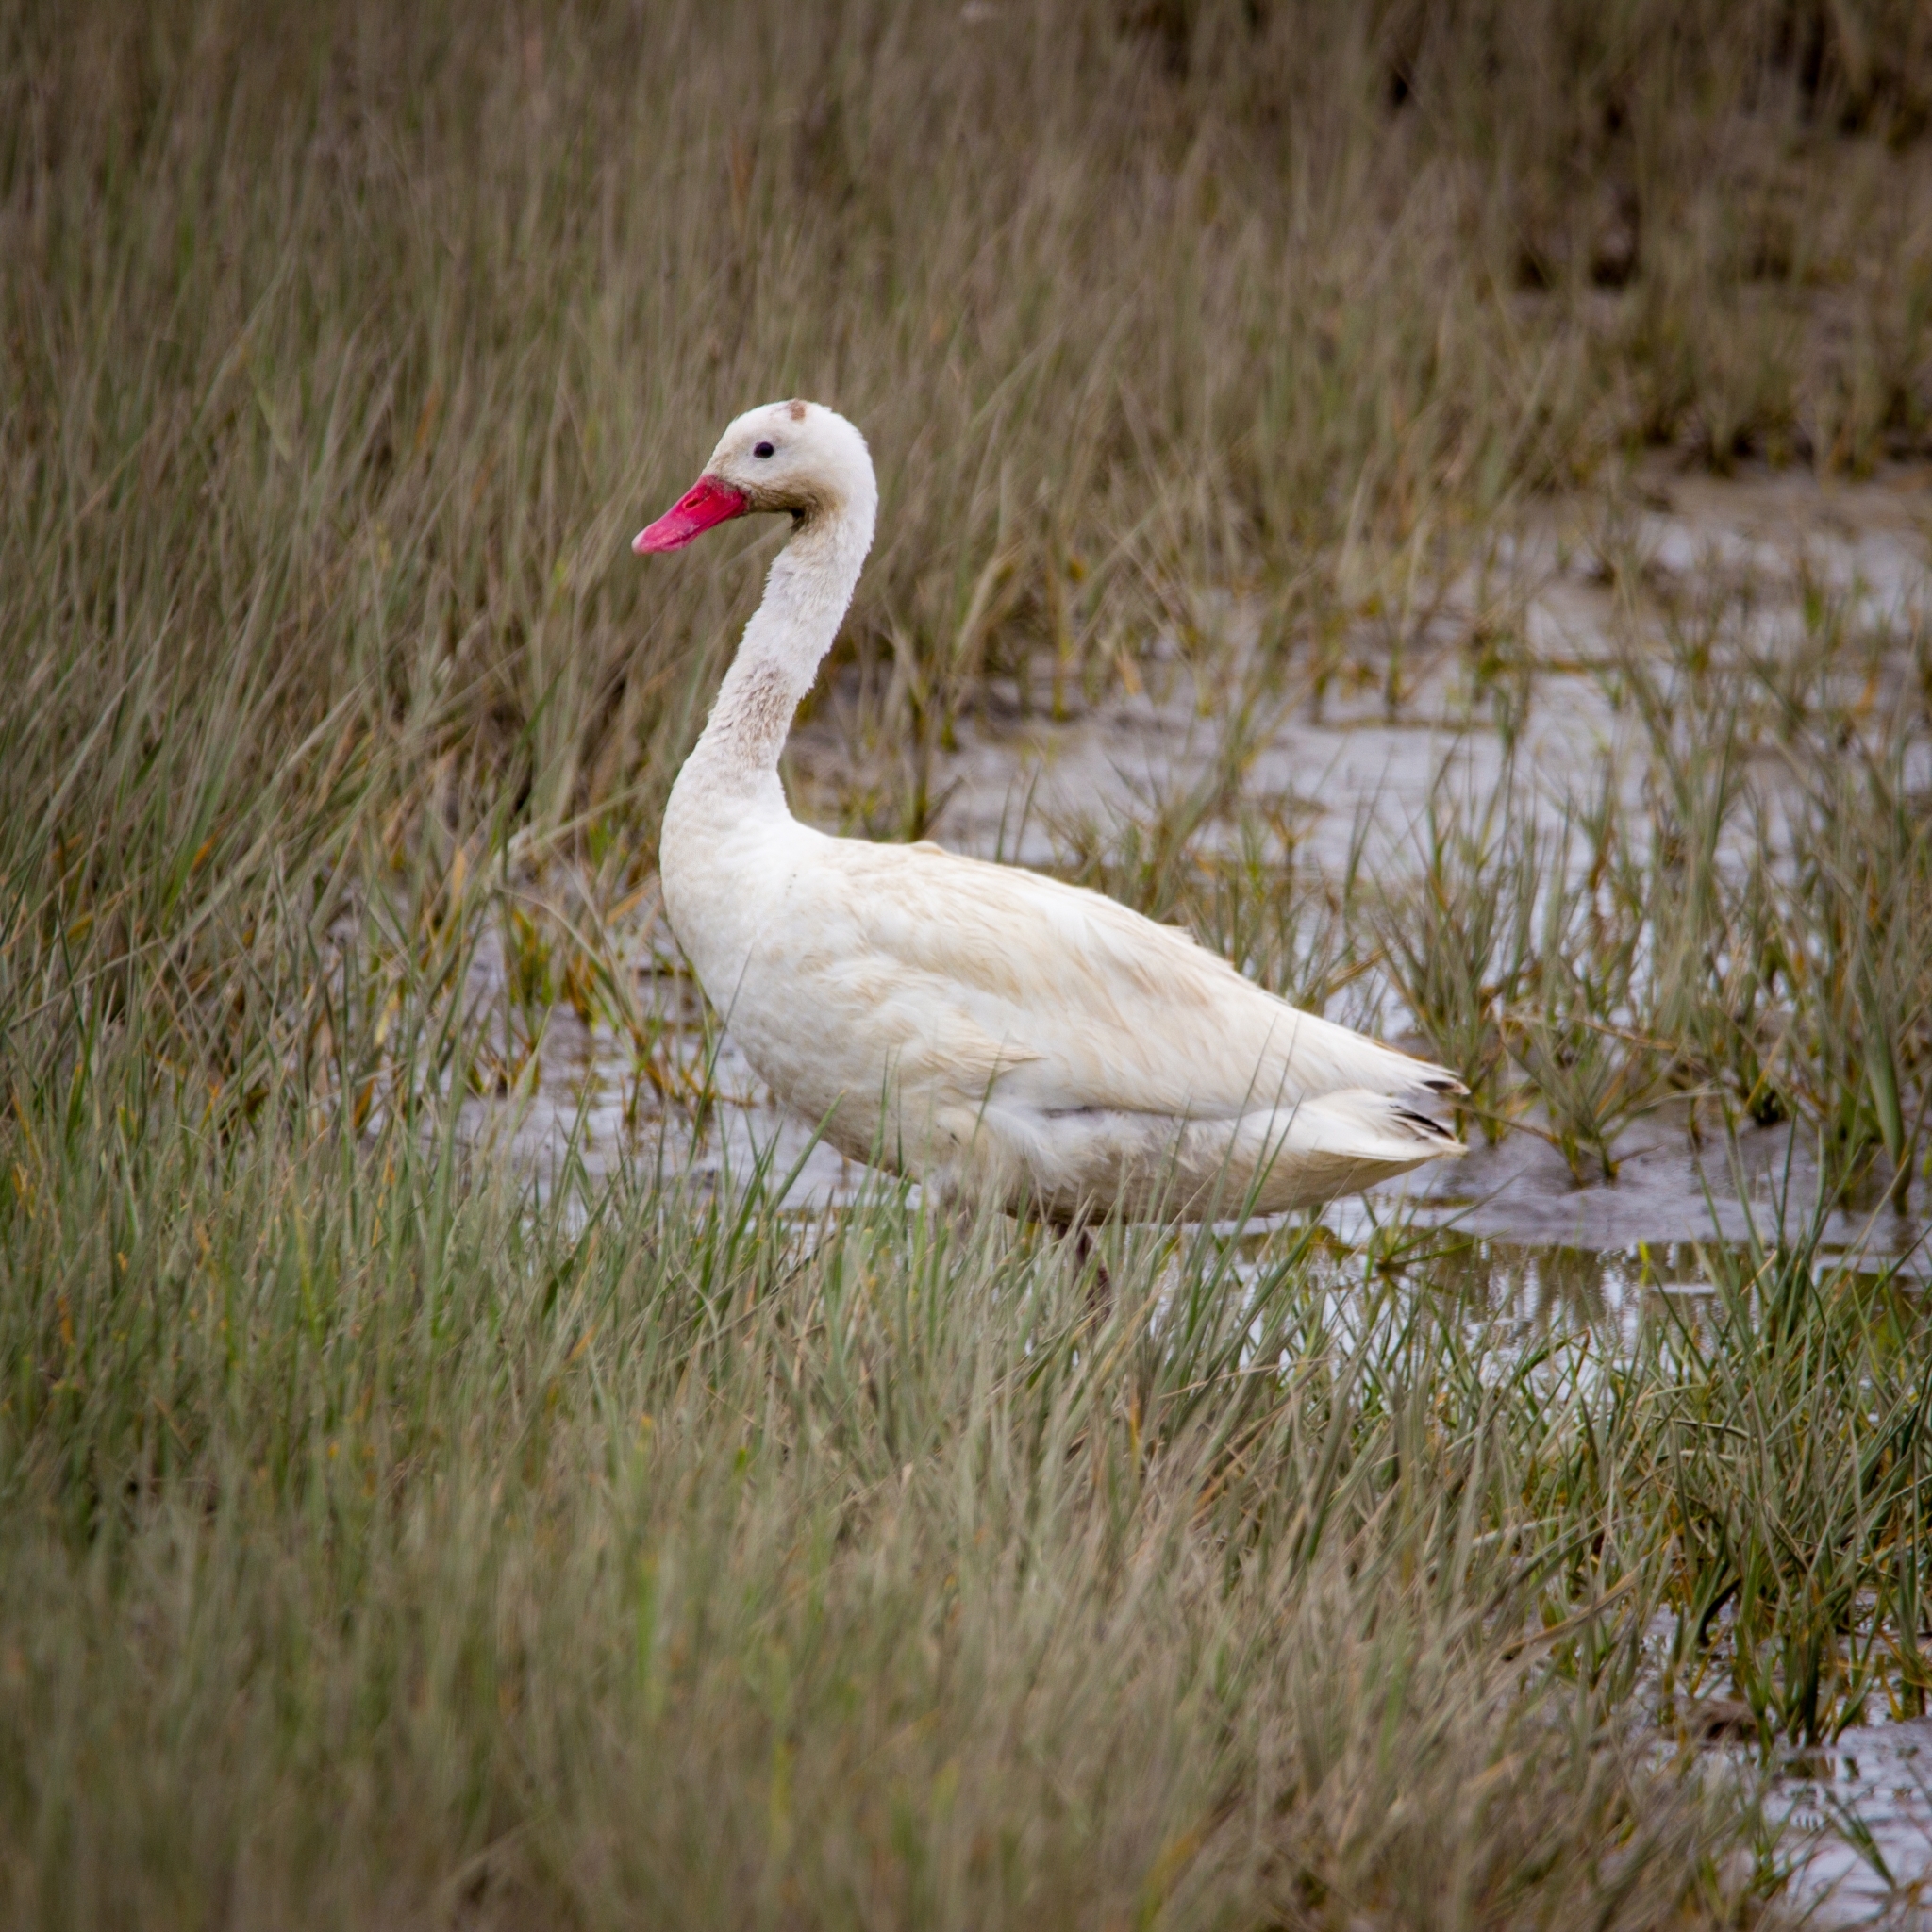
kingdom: Animalia
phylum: Chordata
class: Aves
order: Anseriformes
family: Anatidae
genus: Coscoroba
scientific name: Coscoroba coscoroba
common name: Coscoroba swan
